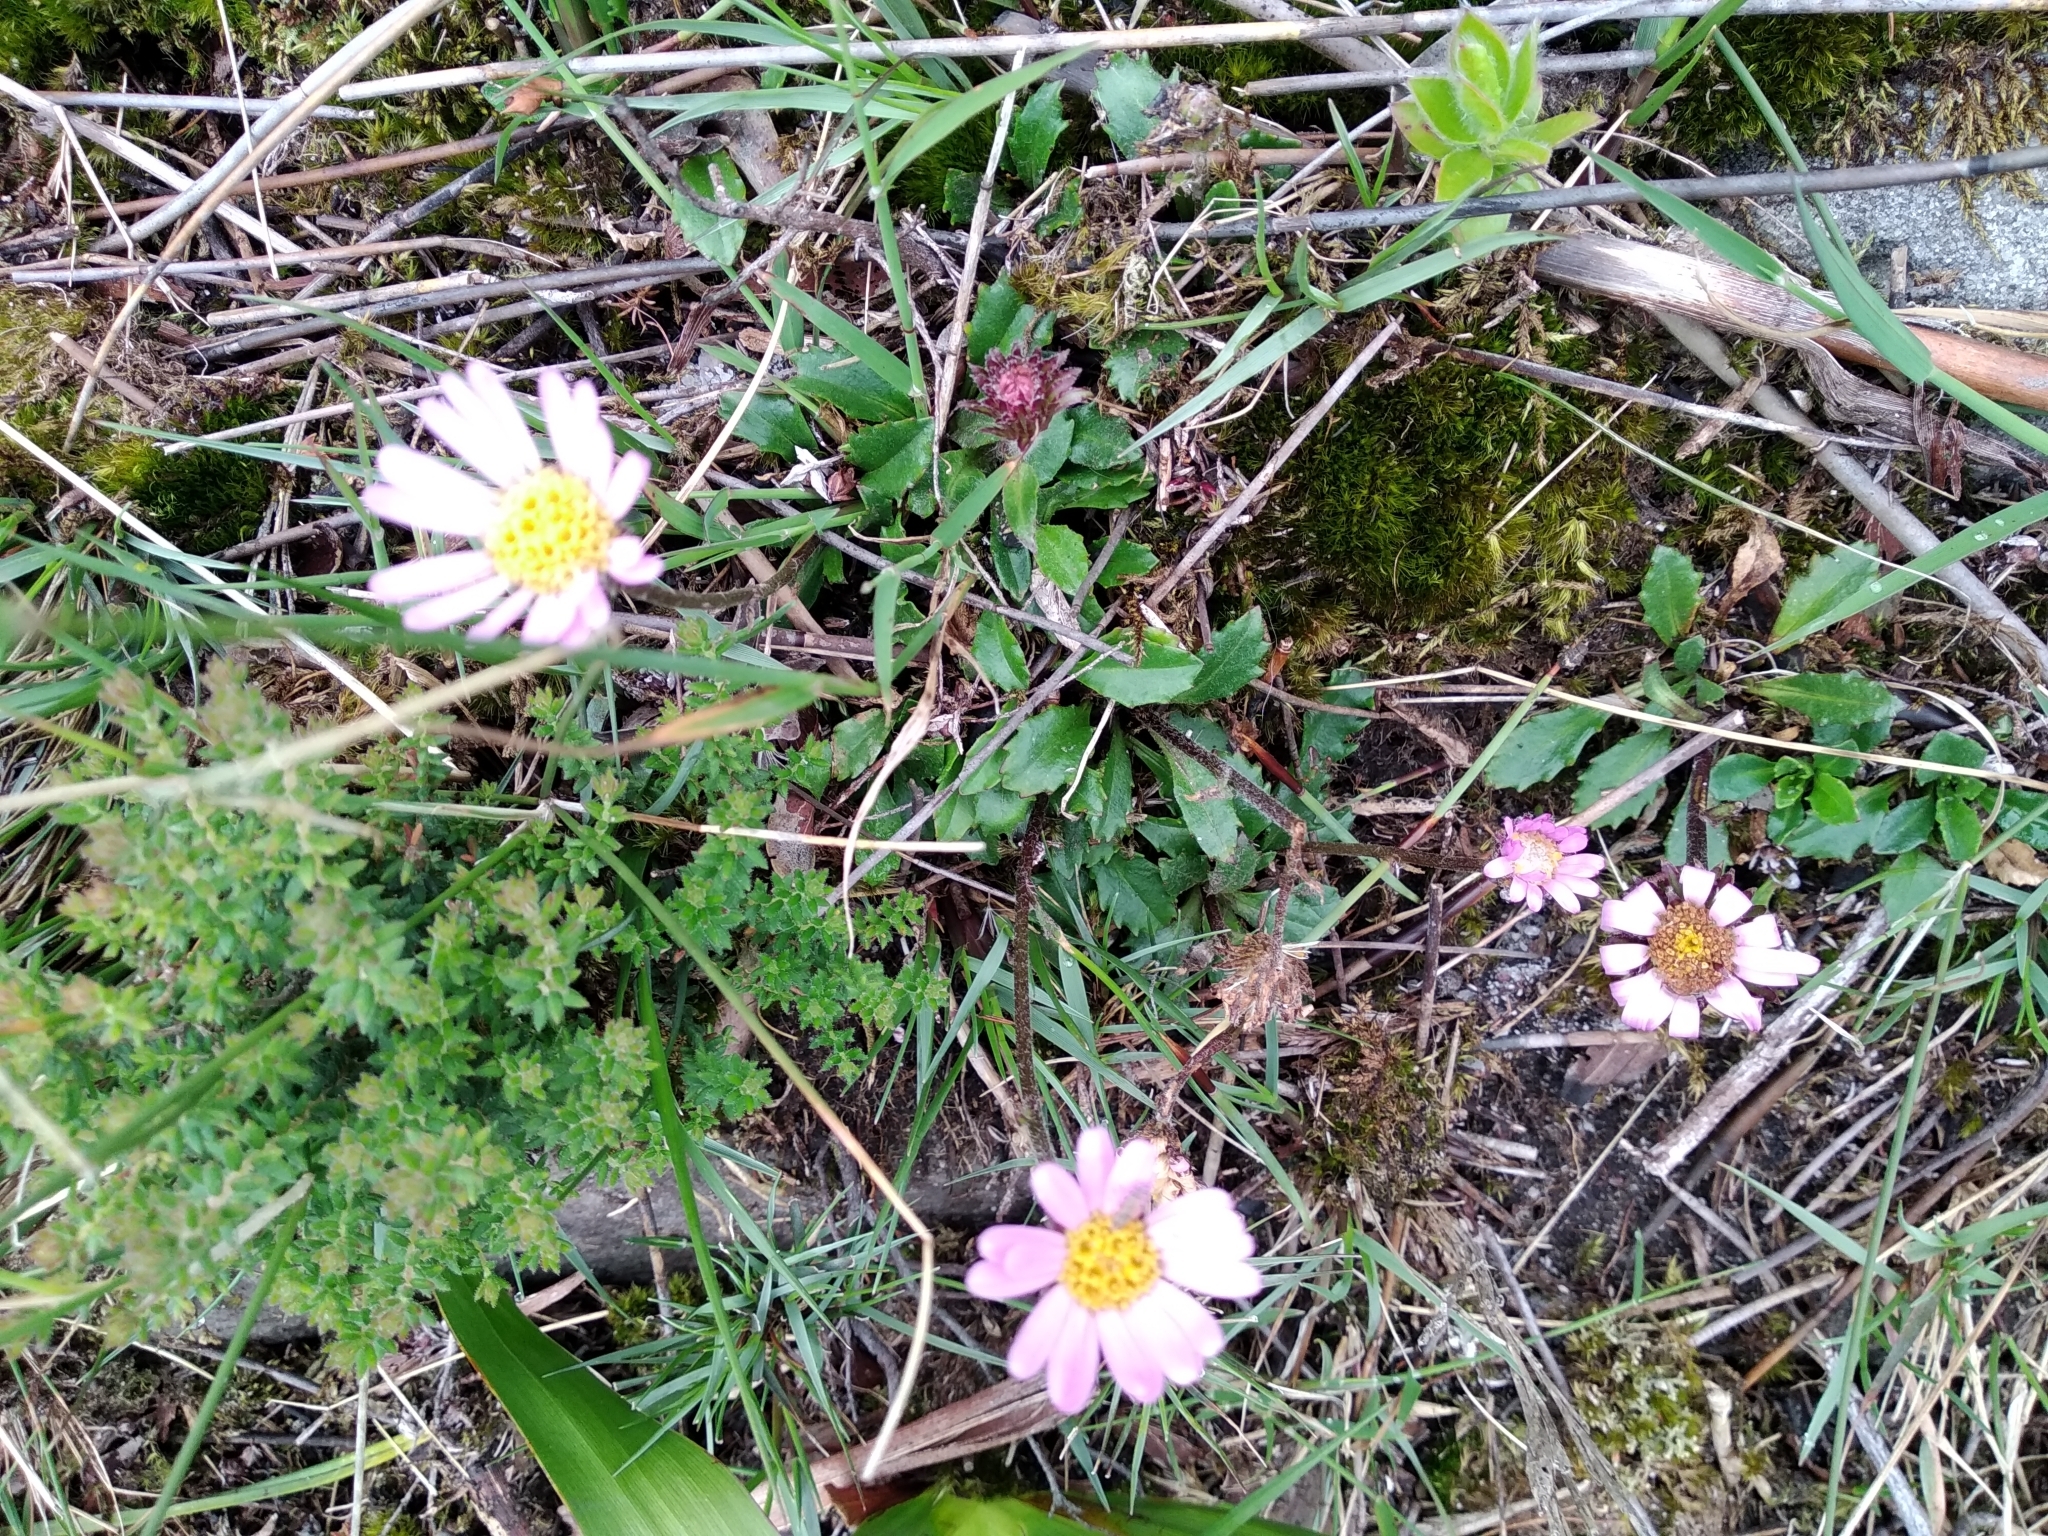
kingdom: Plantae
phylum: Tracheophyta
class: Magnoliopsida
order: Asterales
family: Asteraceae
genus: Zyrphelis
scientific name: Zyrphelis crenata
